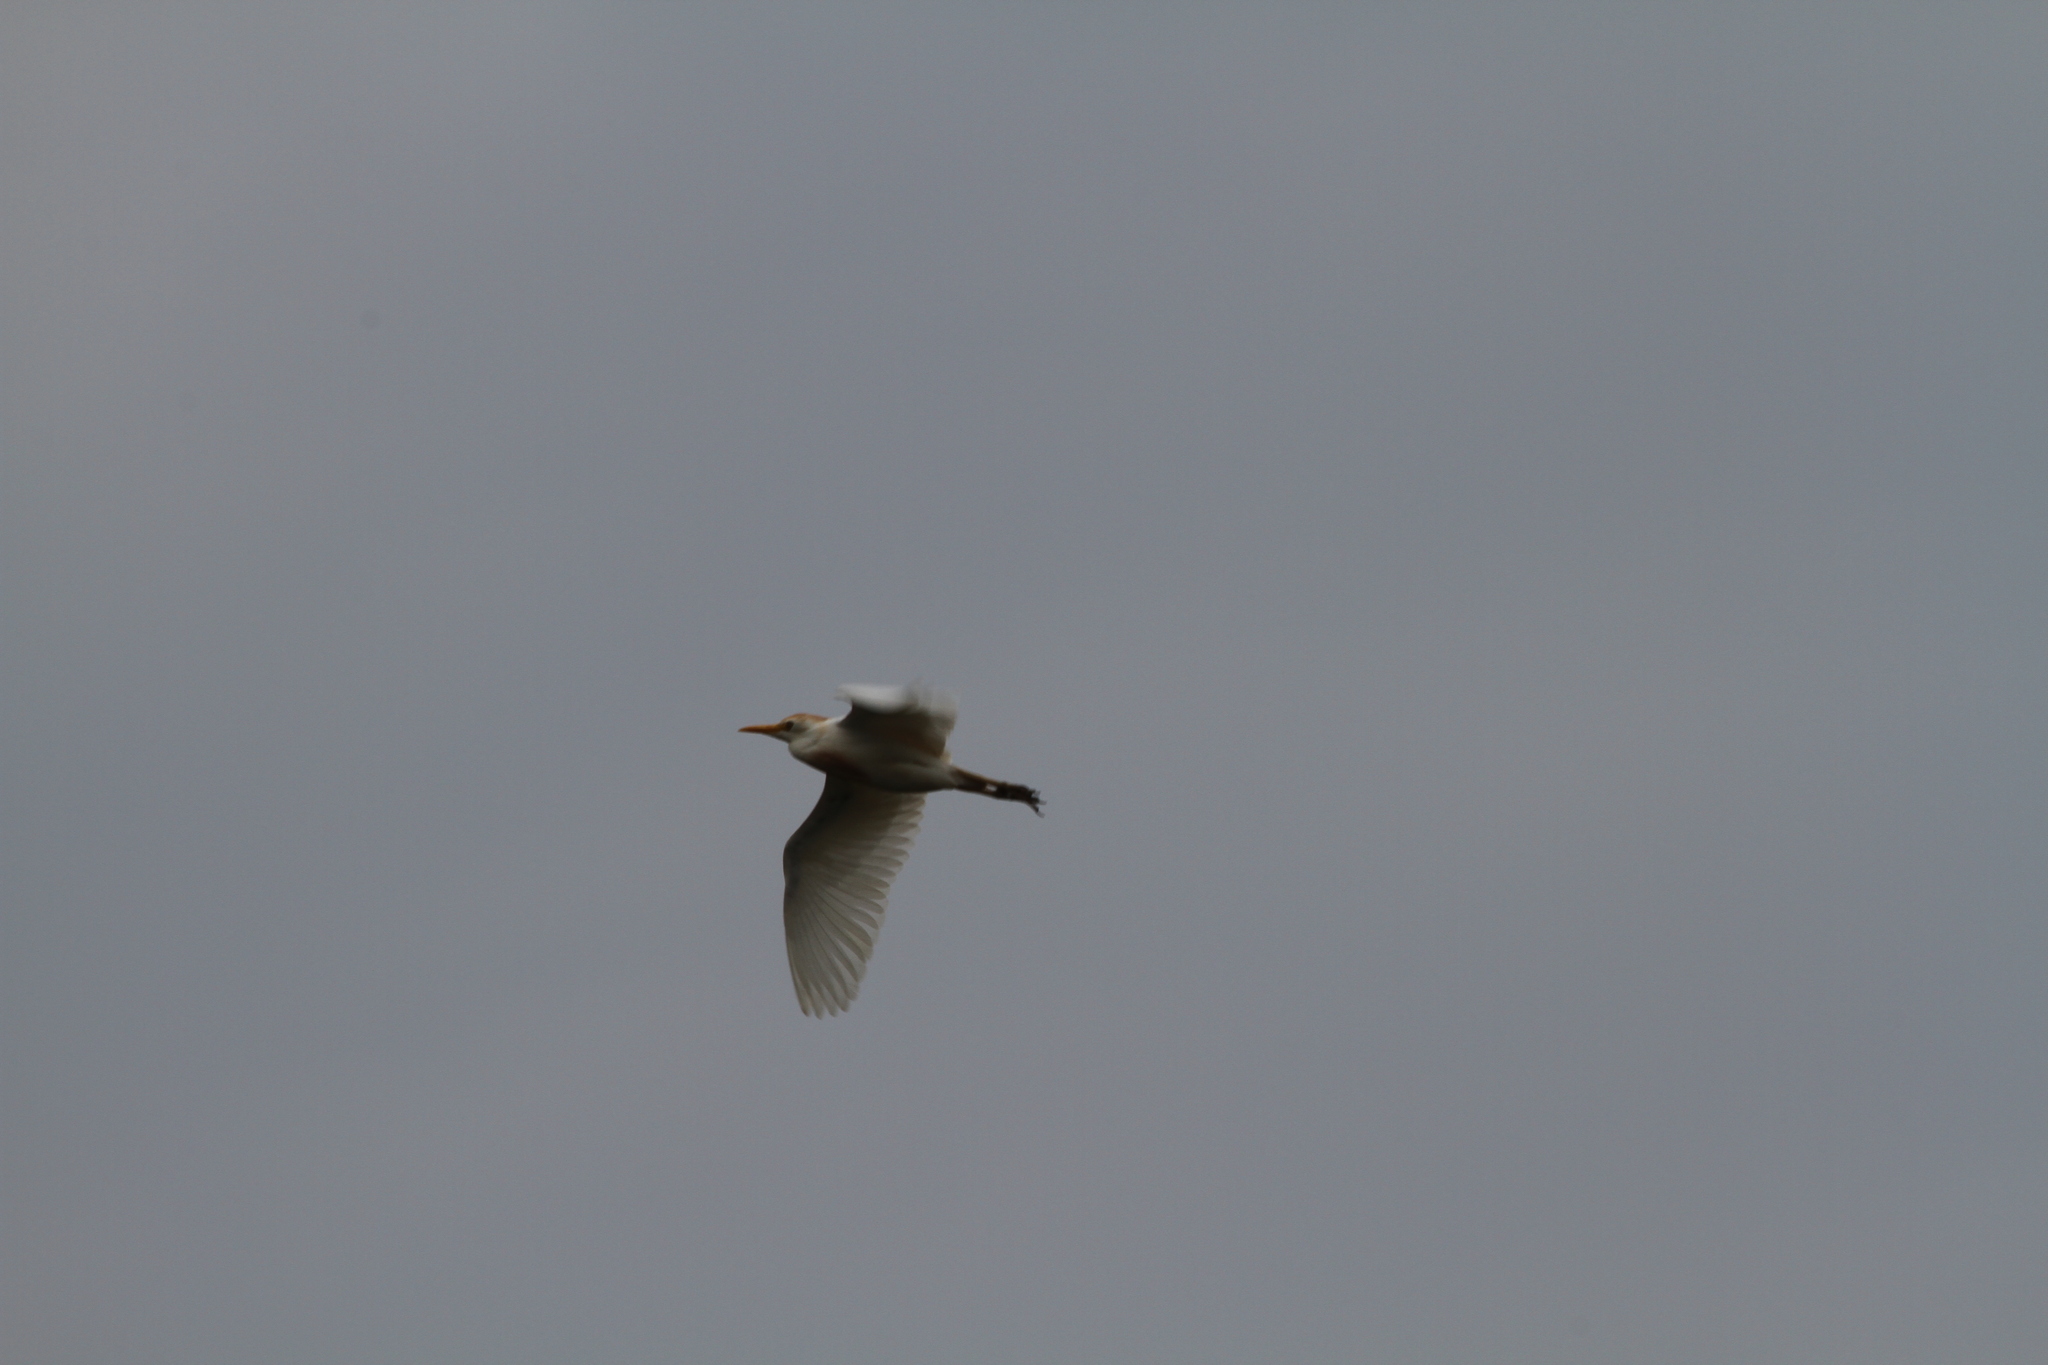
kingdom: Animalia
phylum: Chordata
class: Aves
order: Pelecaniformes
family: Ardeidae
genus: Bubulcus
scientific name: Bubulcus ibis
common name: Cattle egret
